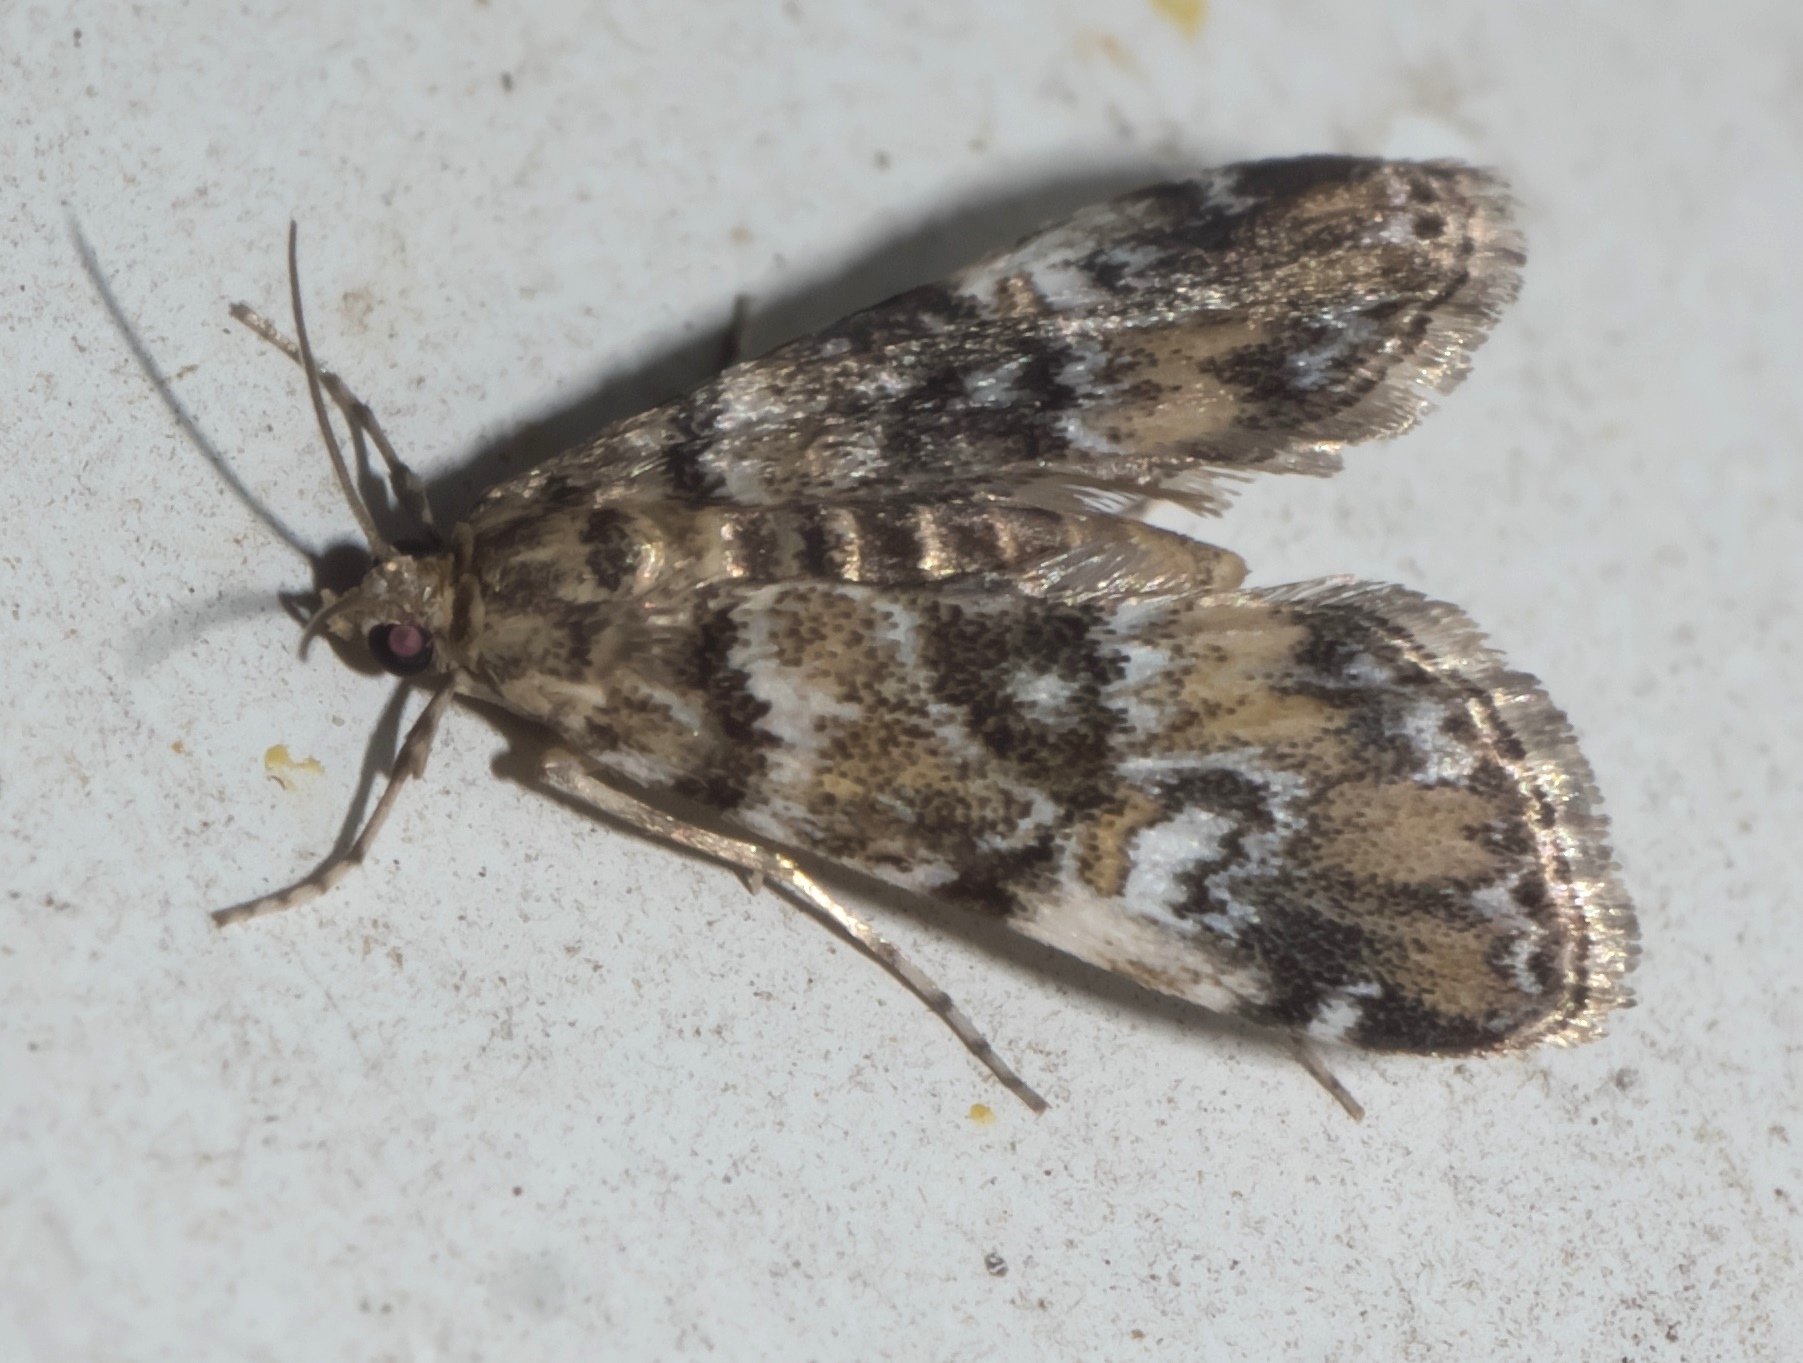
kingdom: Animalia
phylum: Arthropoda
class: Insecta
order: Lepidoptera
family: Crambidae
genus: Elophila
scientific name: Elophila obliteralis
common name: Waterlily leafcutter moth
